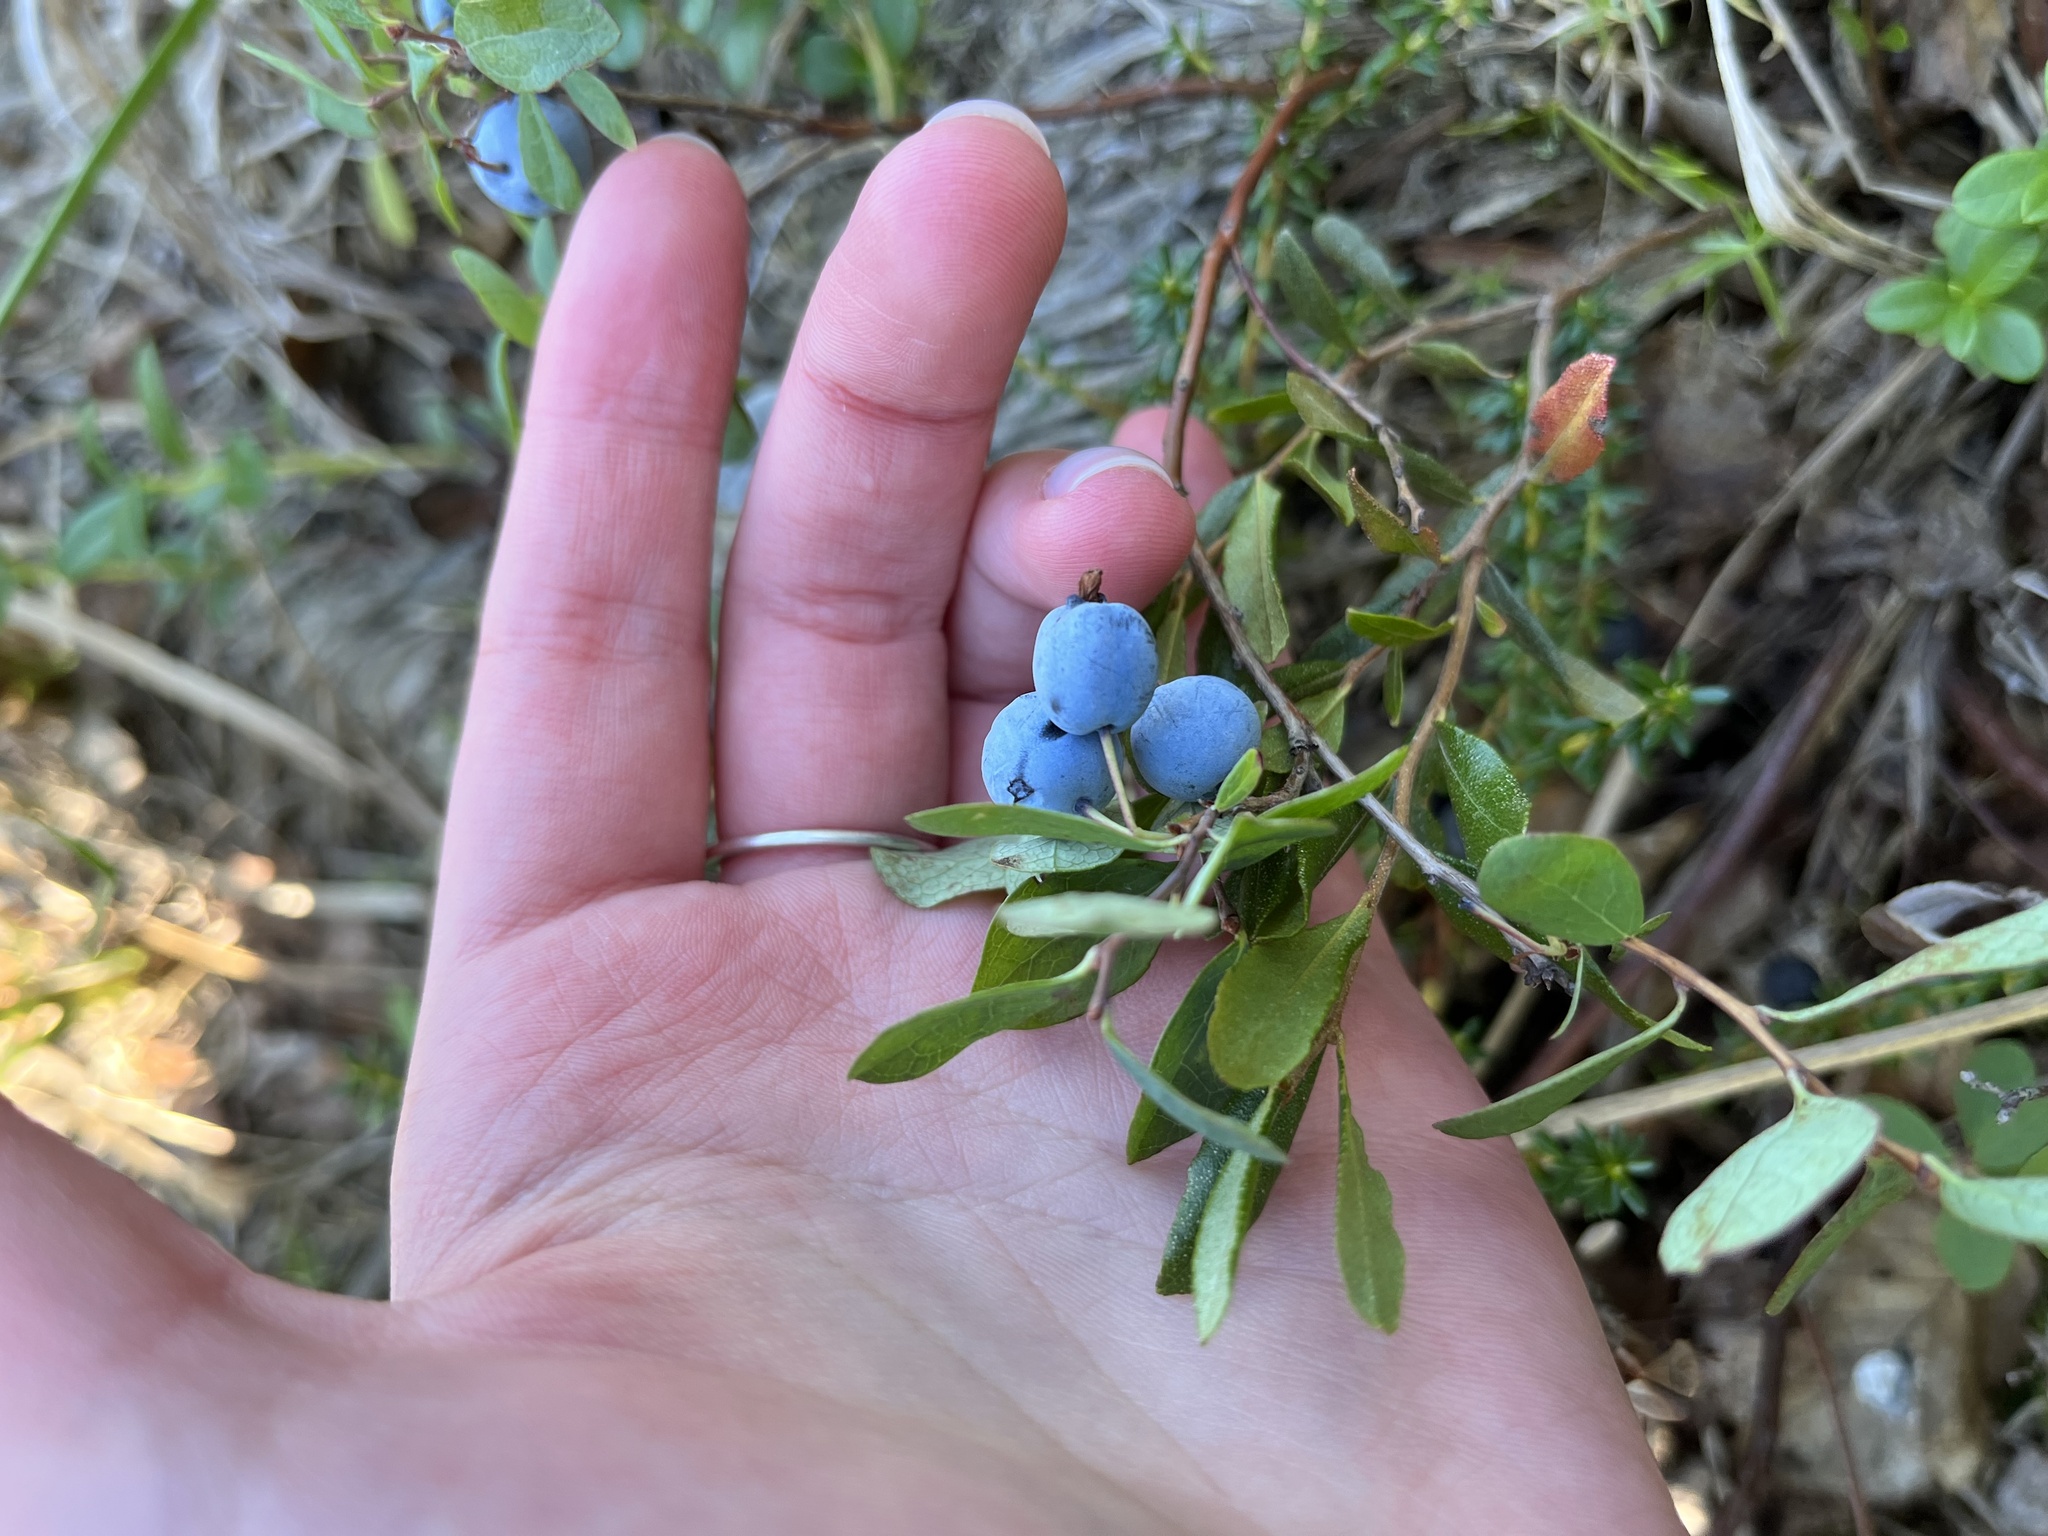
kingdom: Plantae
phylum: Tracheophyta
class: Magnoliopsida
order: Ericales
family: Ericaceae
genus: Vaccinium
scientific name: Vaccinium uliginosum
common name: Bog bilberry
